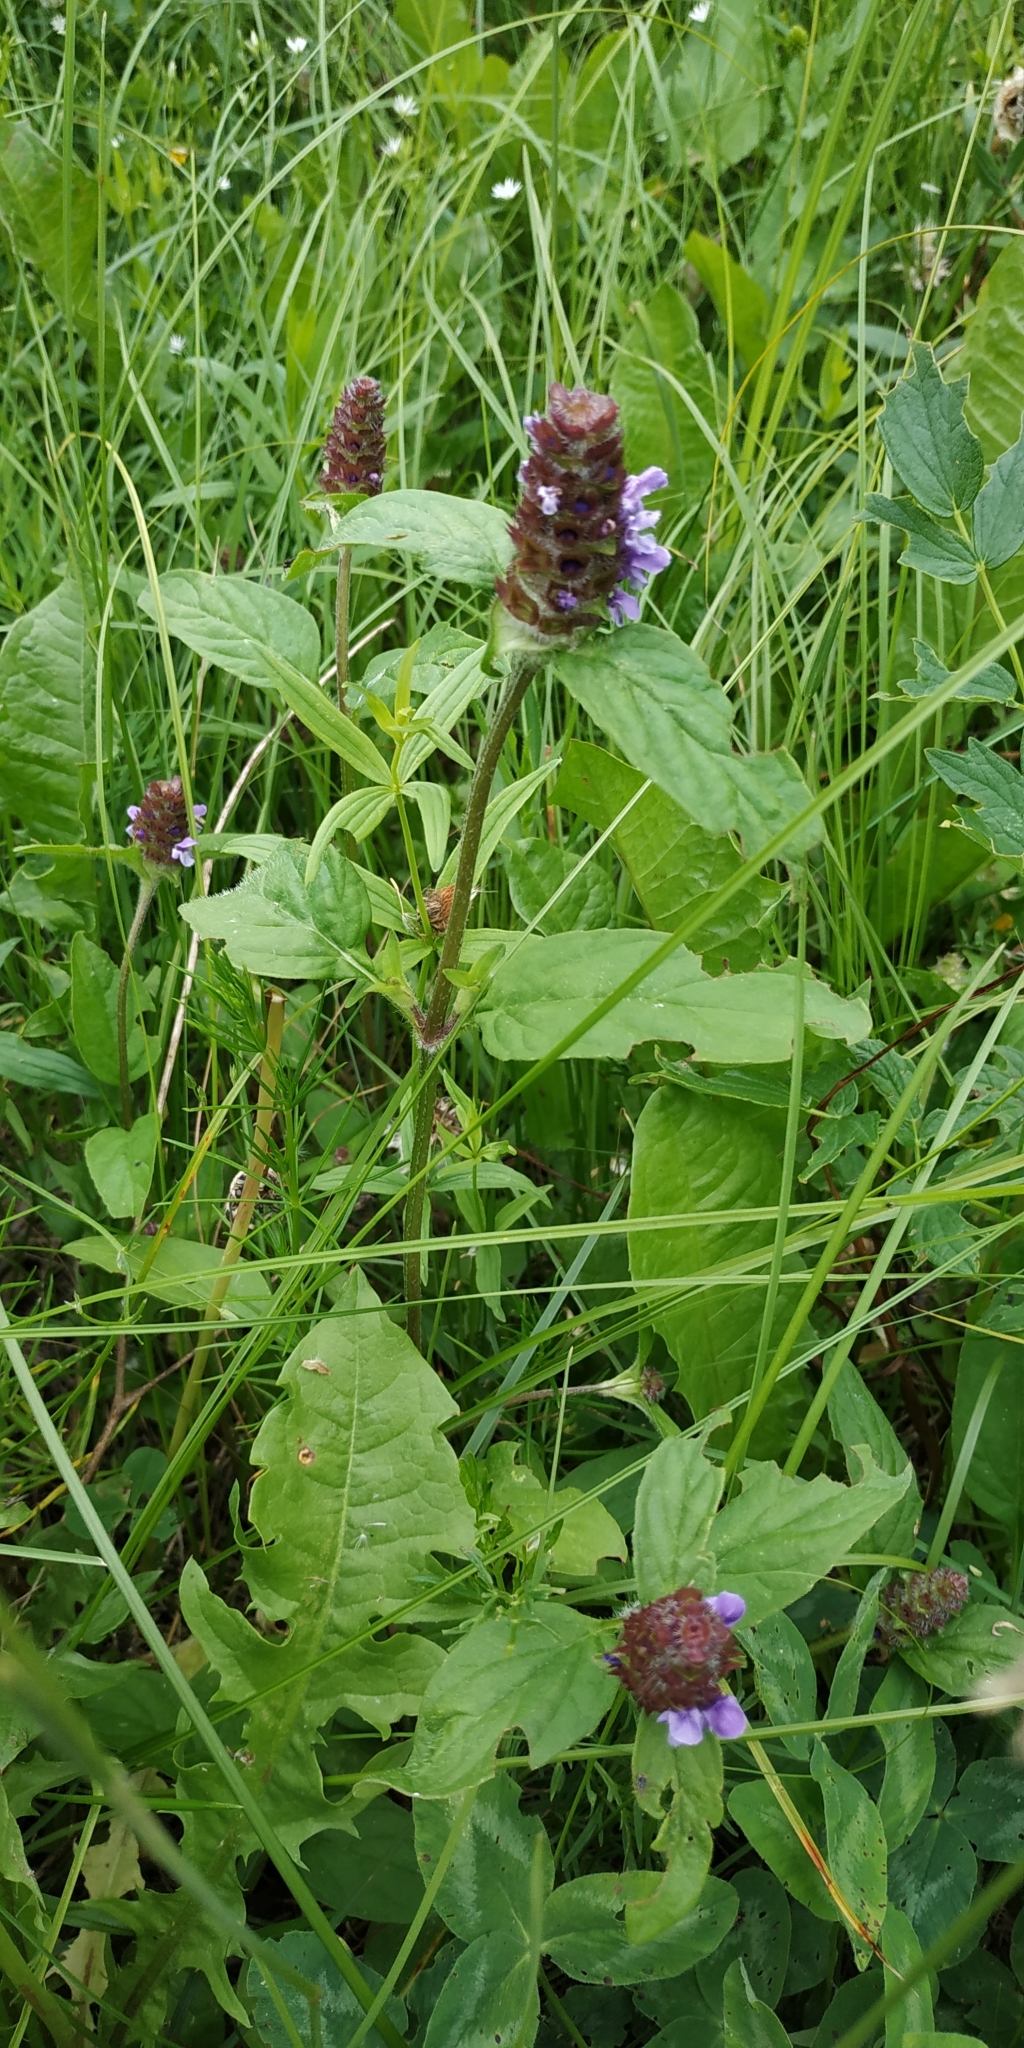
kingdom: Plantae
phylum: Tracheophyta
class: Magnoliopsida
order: Lamiales
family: Lamiaceae
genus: Prunella
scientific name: Prunella vulgaris
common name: Heal-all
